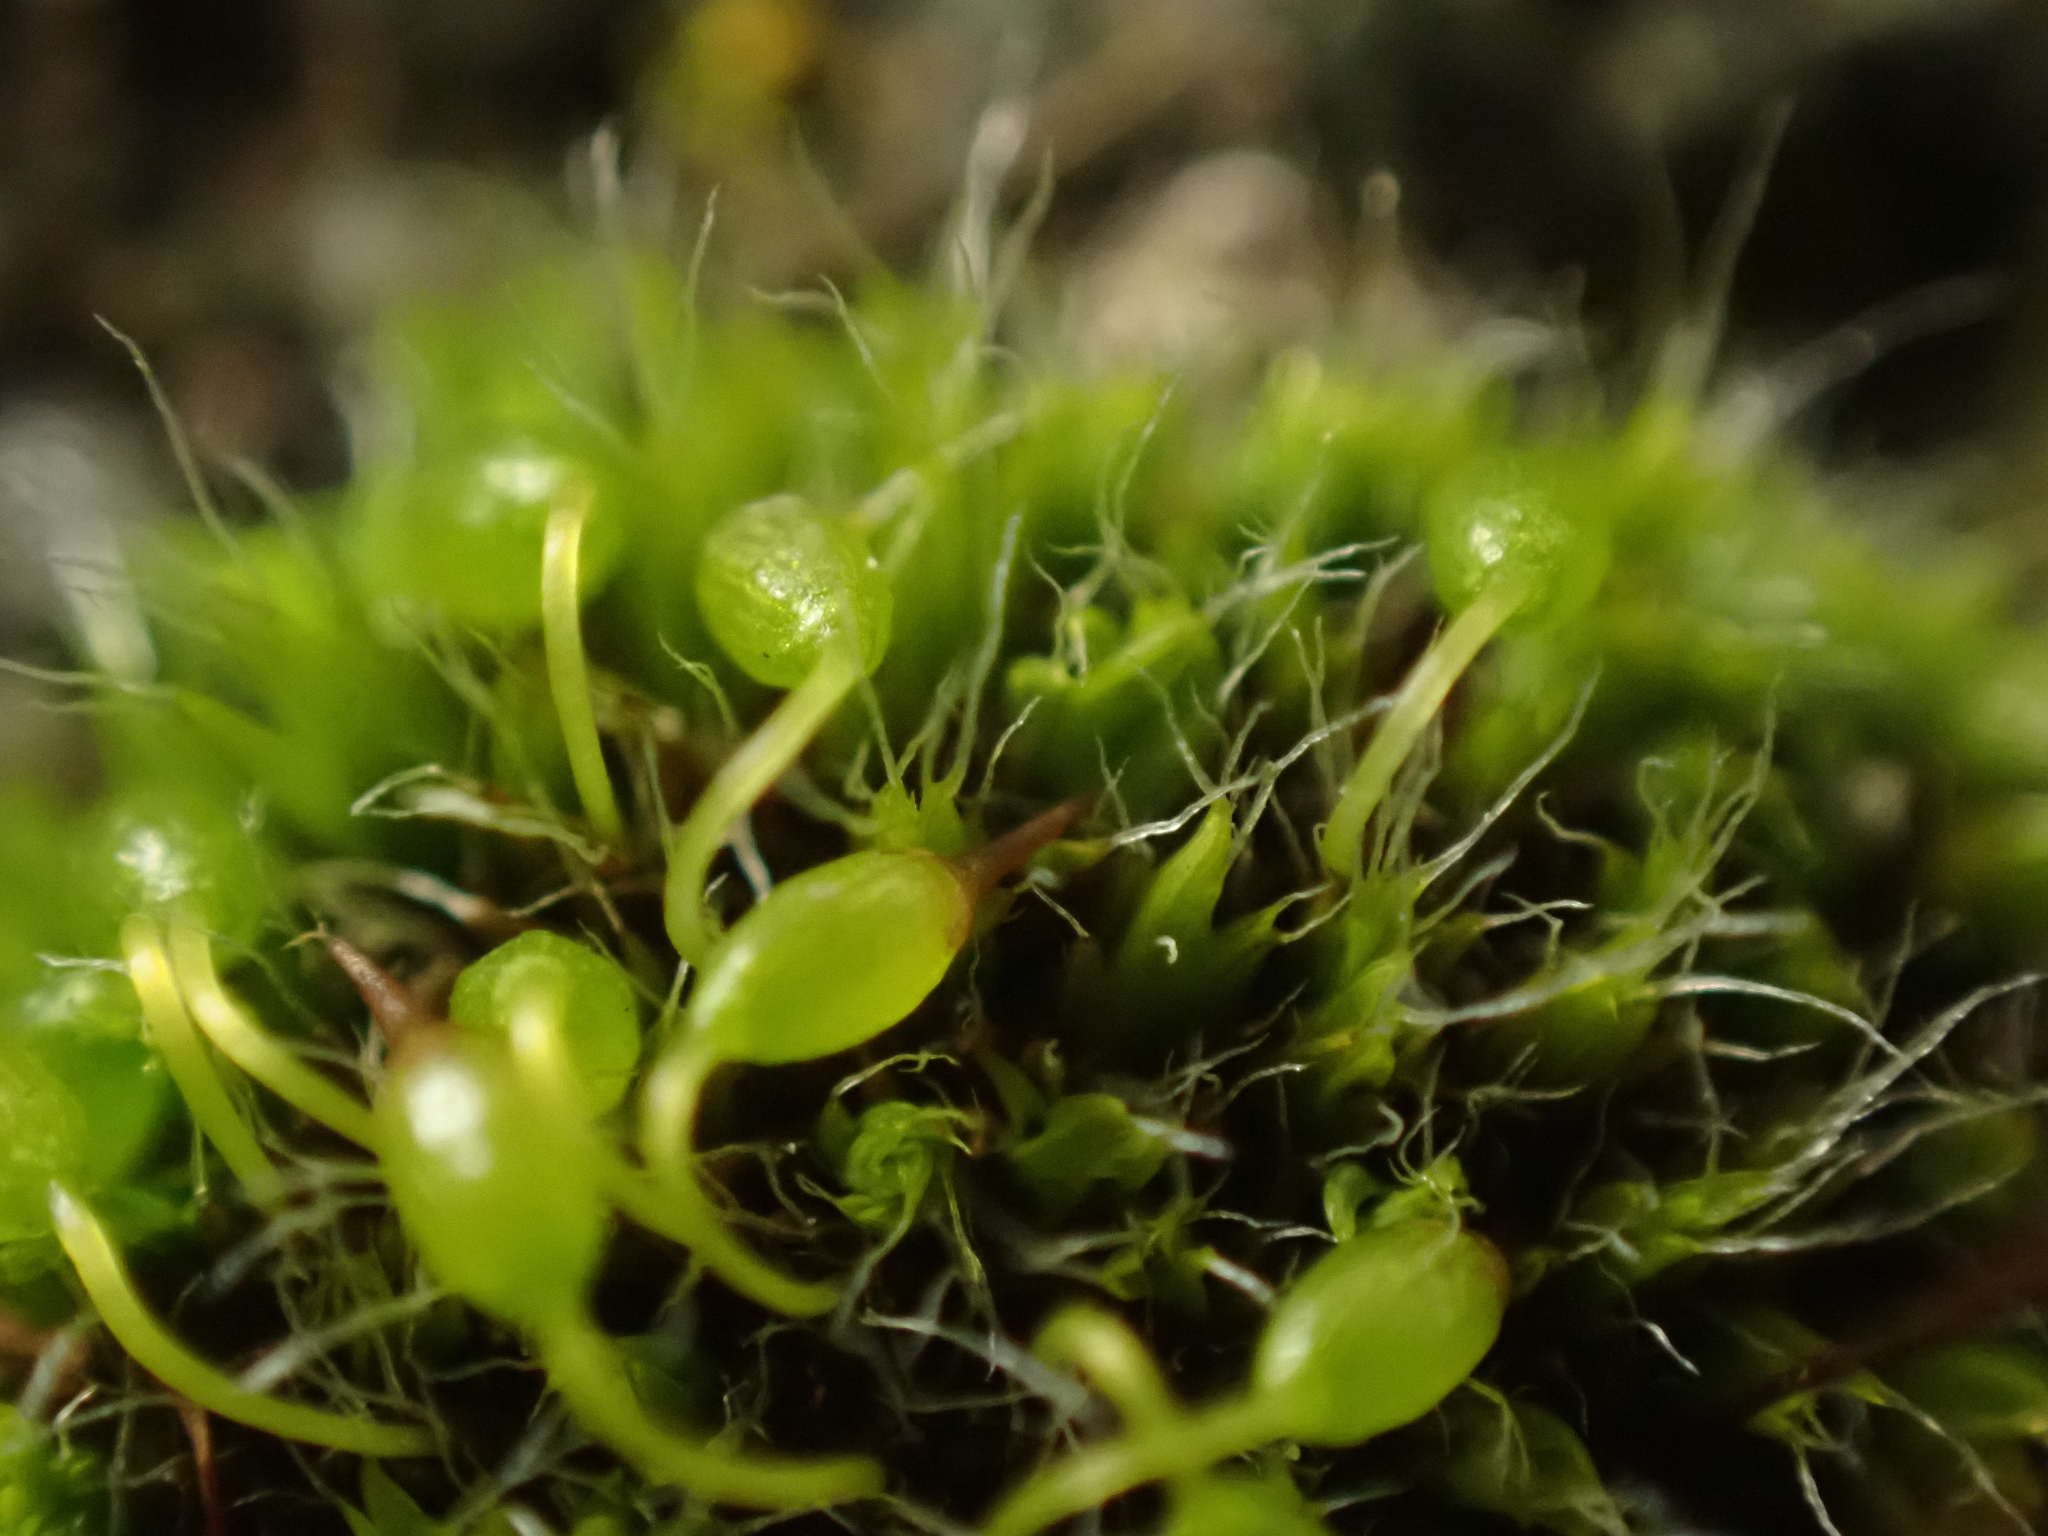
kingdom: Plantae
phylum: Bryophyta
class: Bryopsida
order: Grimmiales
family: Grimmiaceae
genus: Grimmia
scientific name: Grimmia pulvinata
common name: Grey-cushioned grimmia
